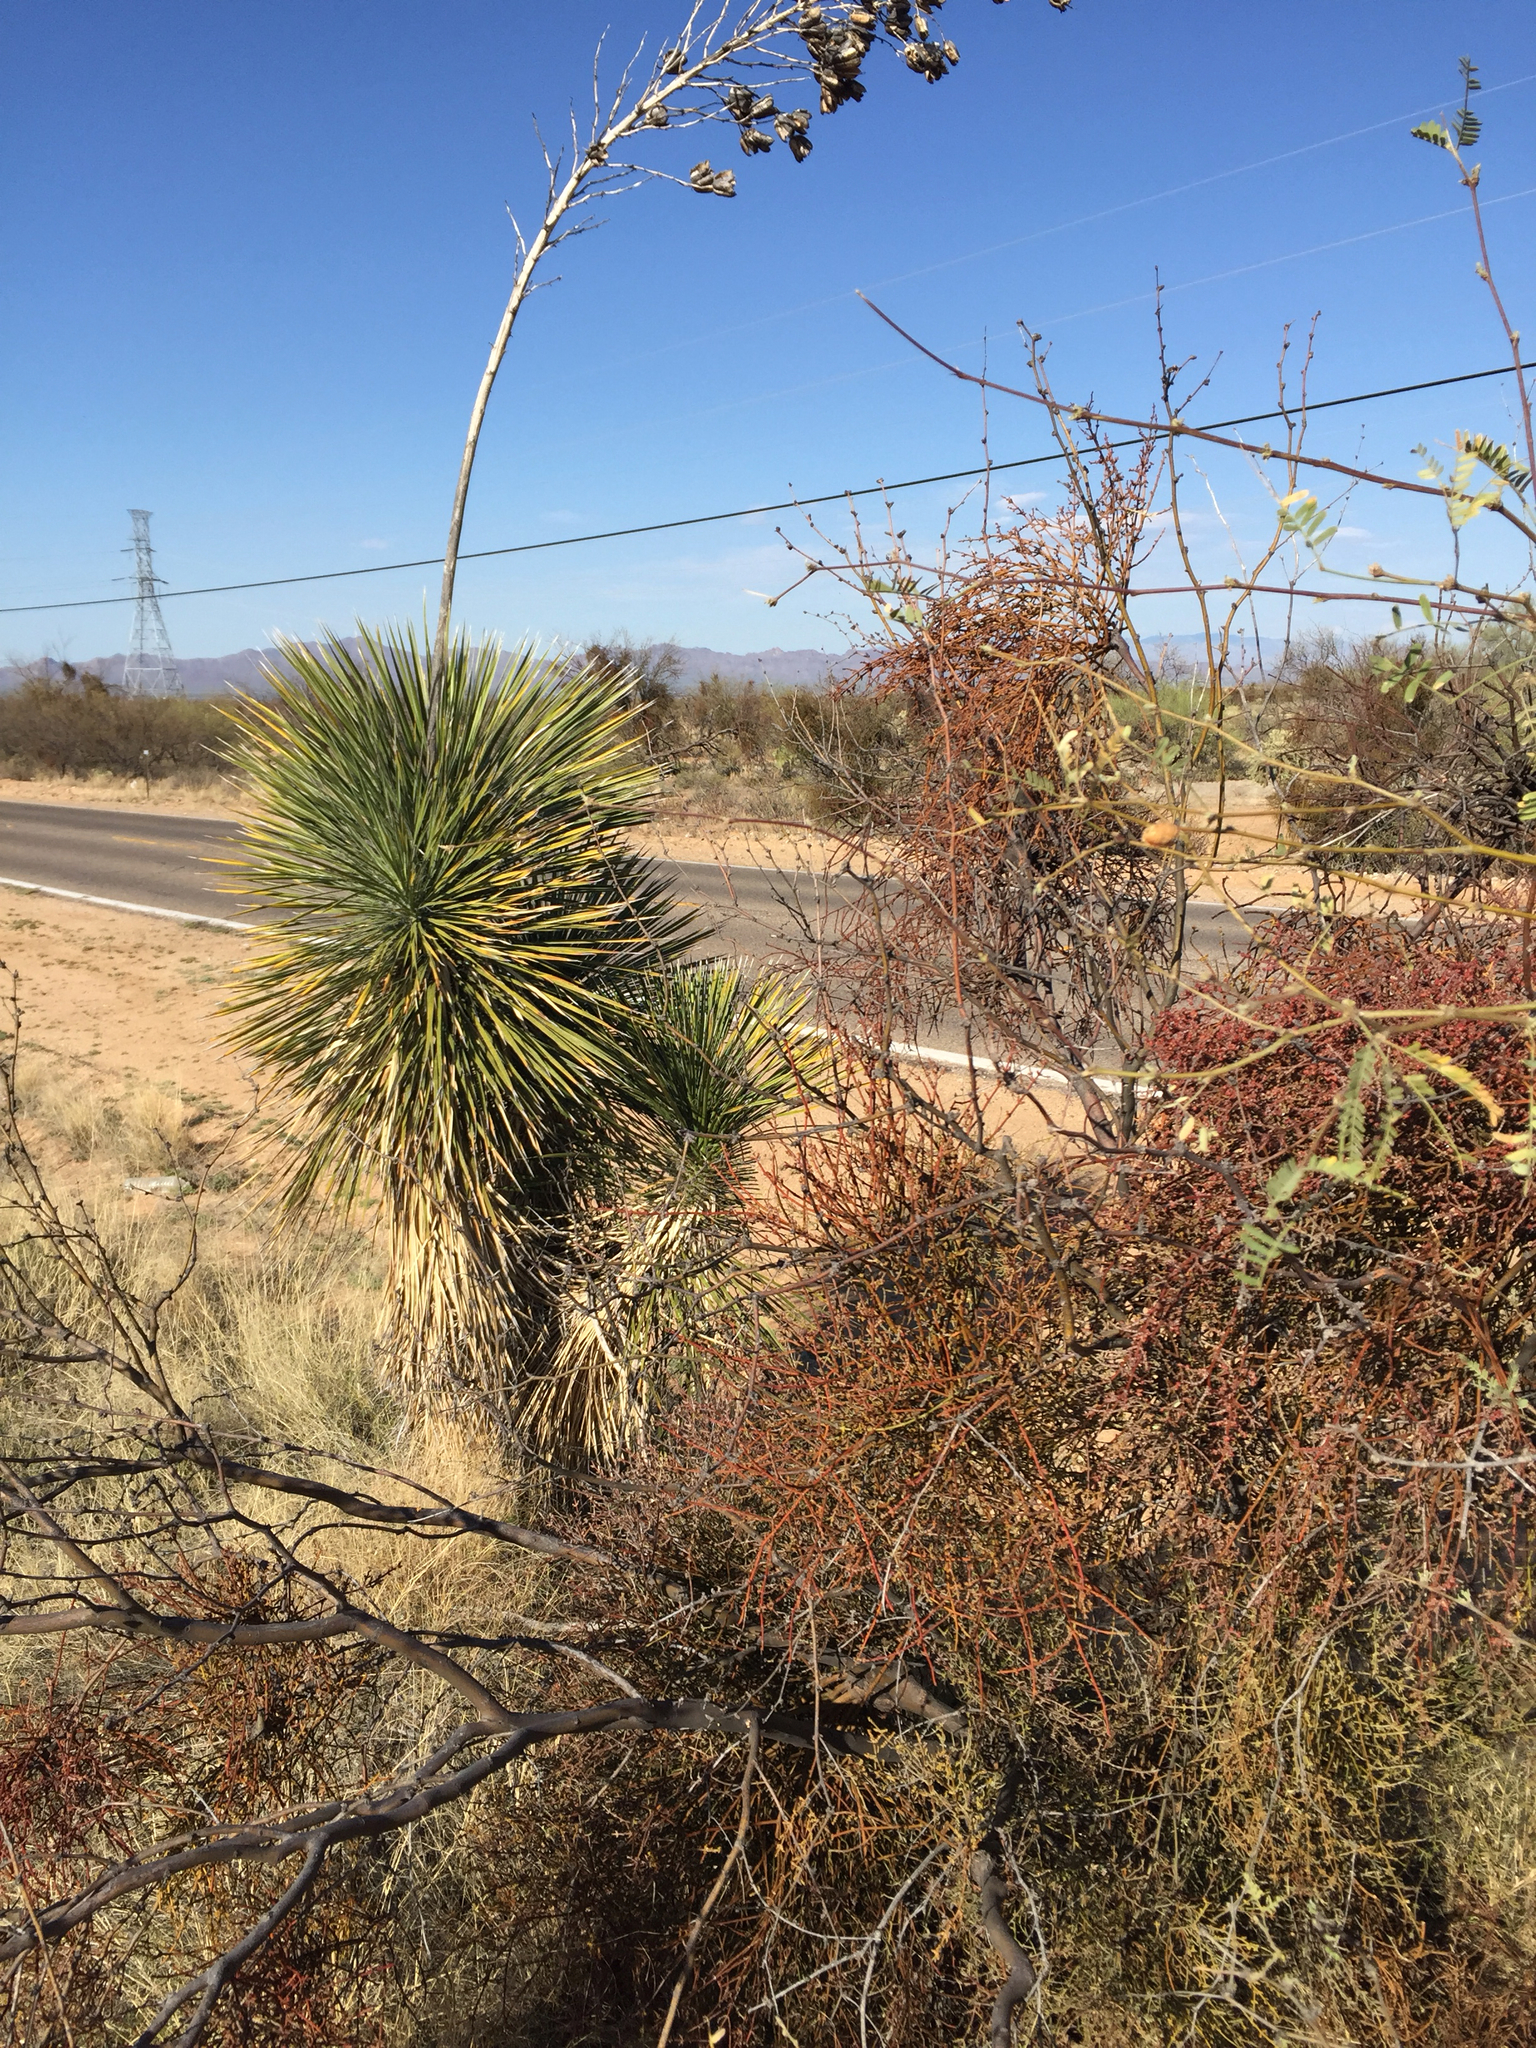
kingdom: Plantae
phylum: Tracheophyta
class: Magnoliopsida
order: Santalales
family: Viscaceae
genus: Phoradendron
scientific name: Phoradendron californicum
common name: Acacia mistletoe
